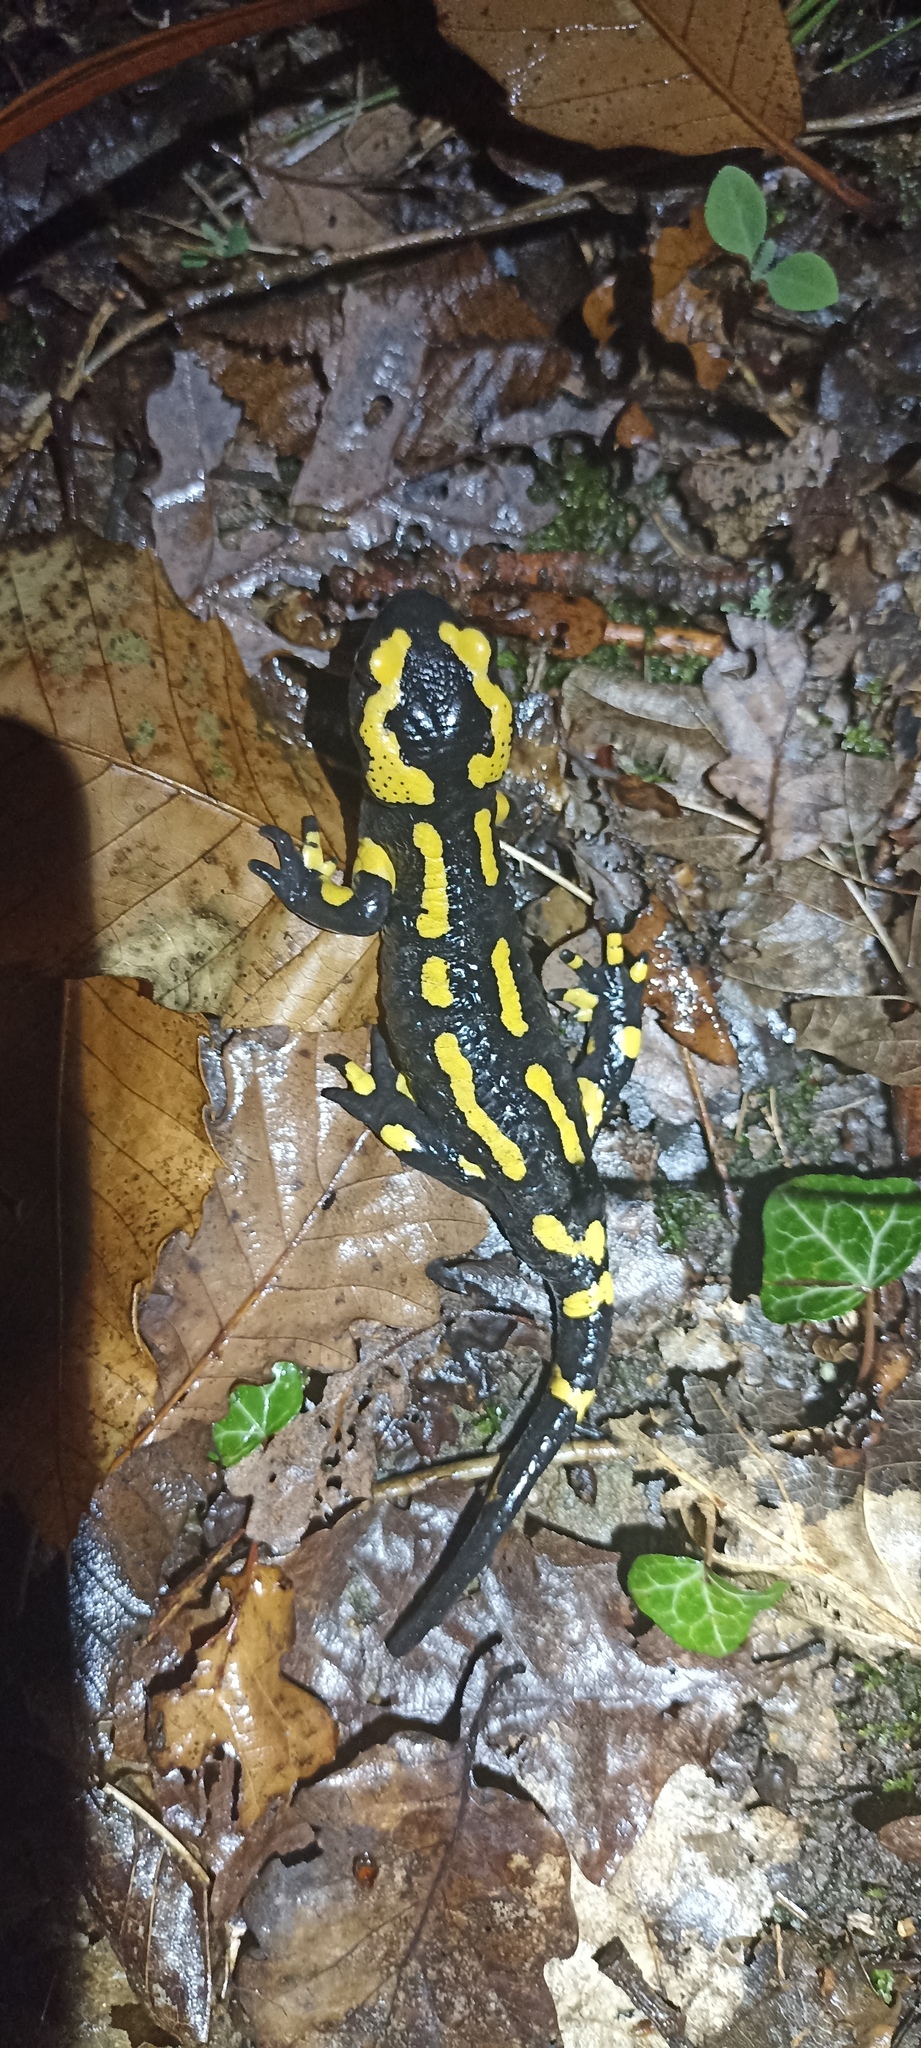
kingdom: Animalia
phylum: Chordata
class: Amphibia
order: Caudata
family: Salamandridae
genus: Salamandra
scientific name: Salamandra salamandra
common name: Fire salamander
